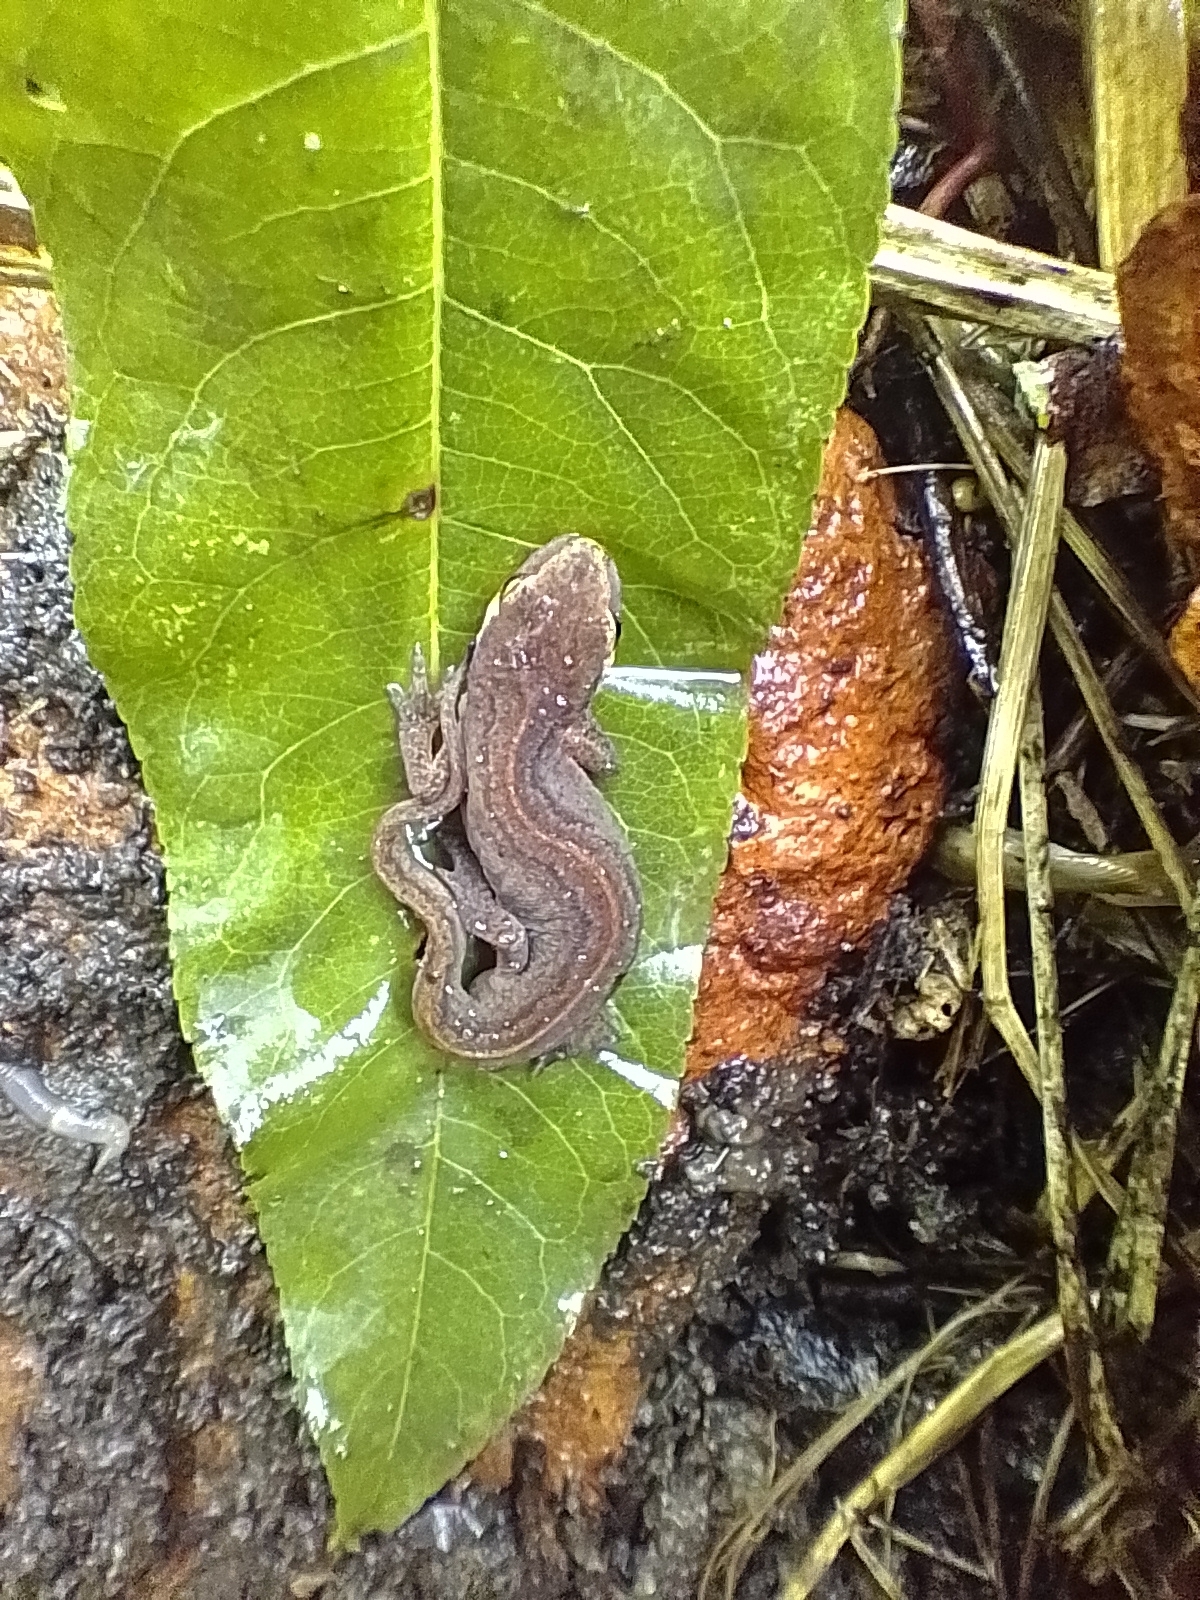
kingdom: Animalia
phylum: Chordata
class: Amphibia
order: Caudata
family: Salamandridae
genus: Lissotriton
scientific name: Lissotriton helveticus
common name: Palmate newt
